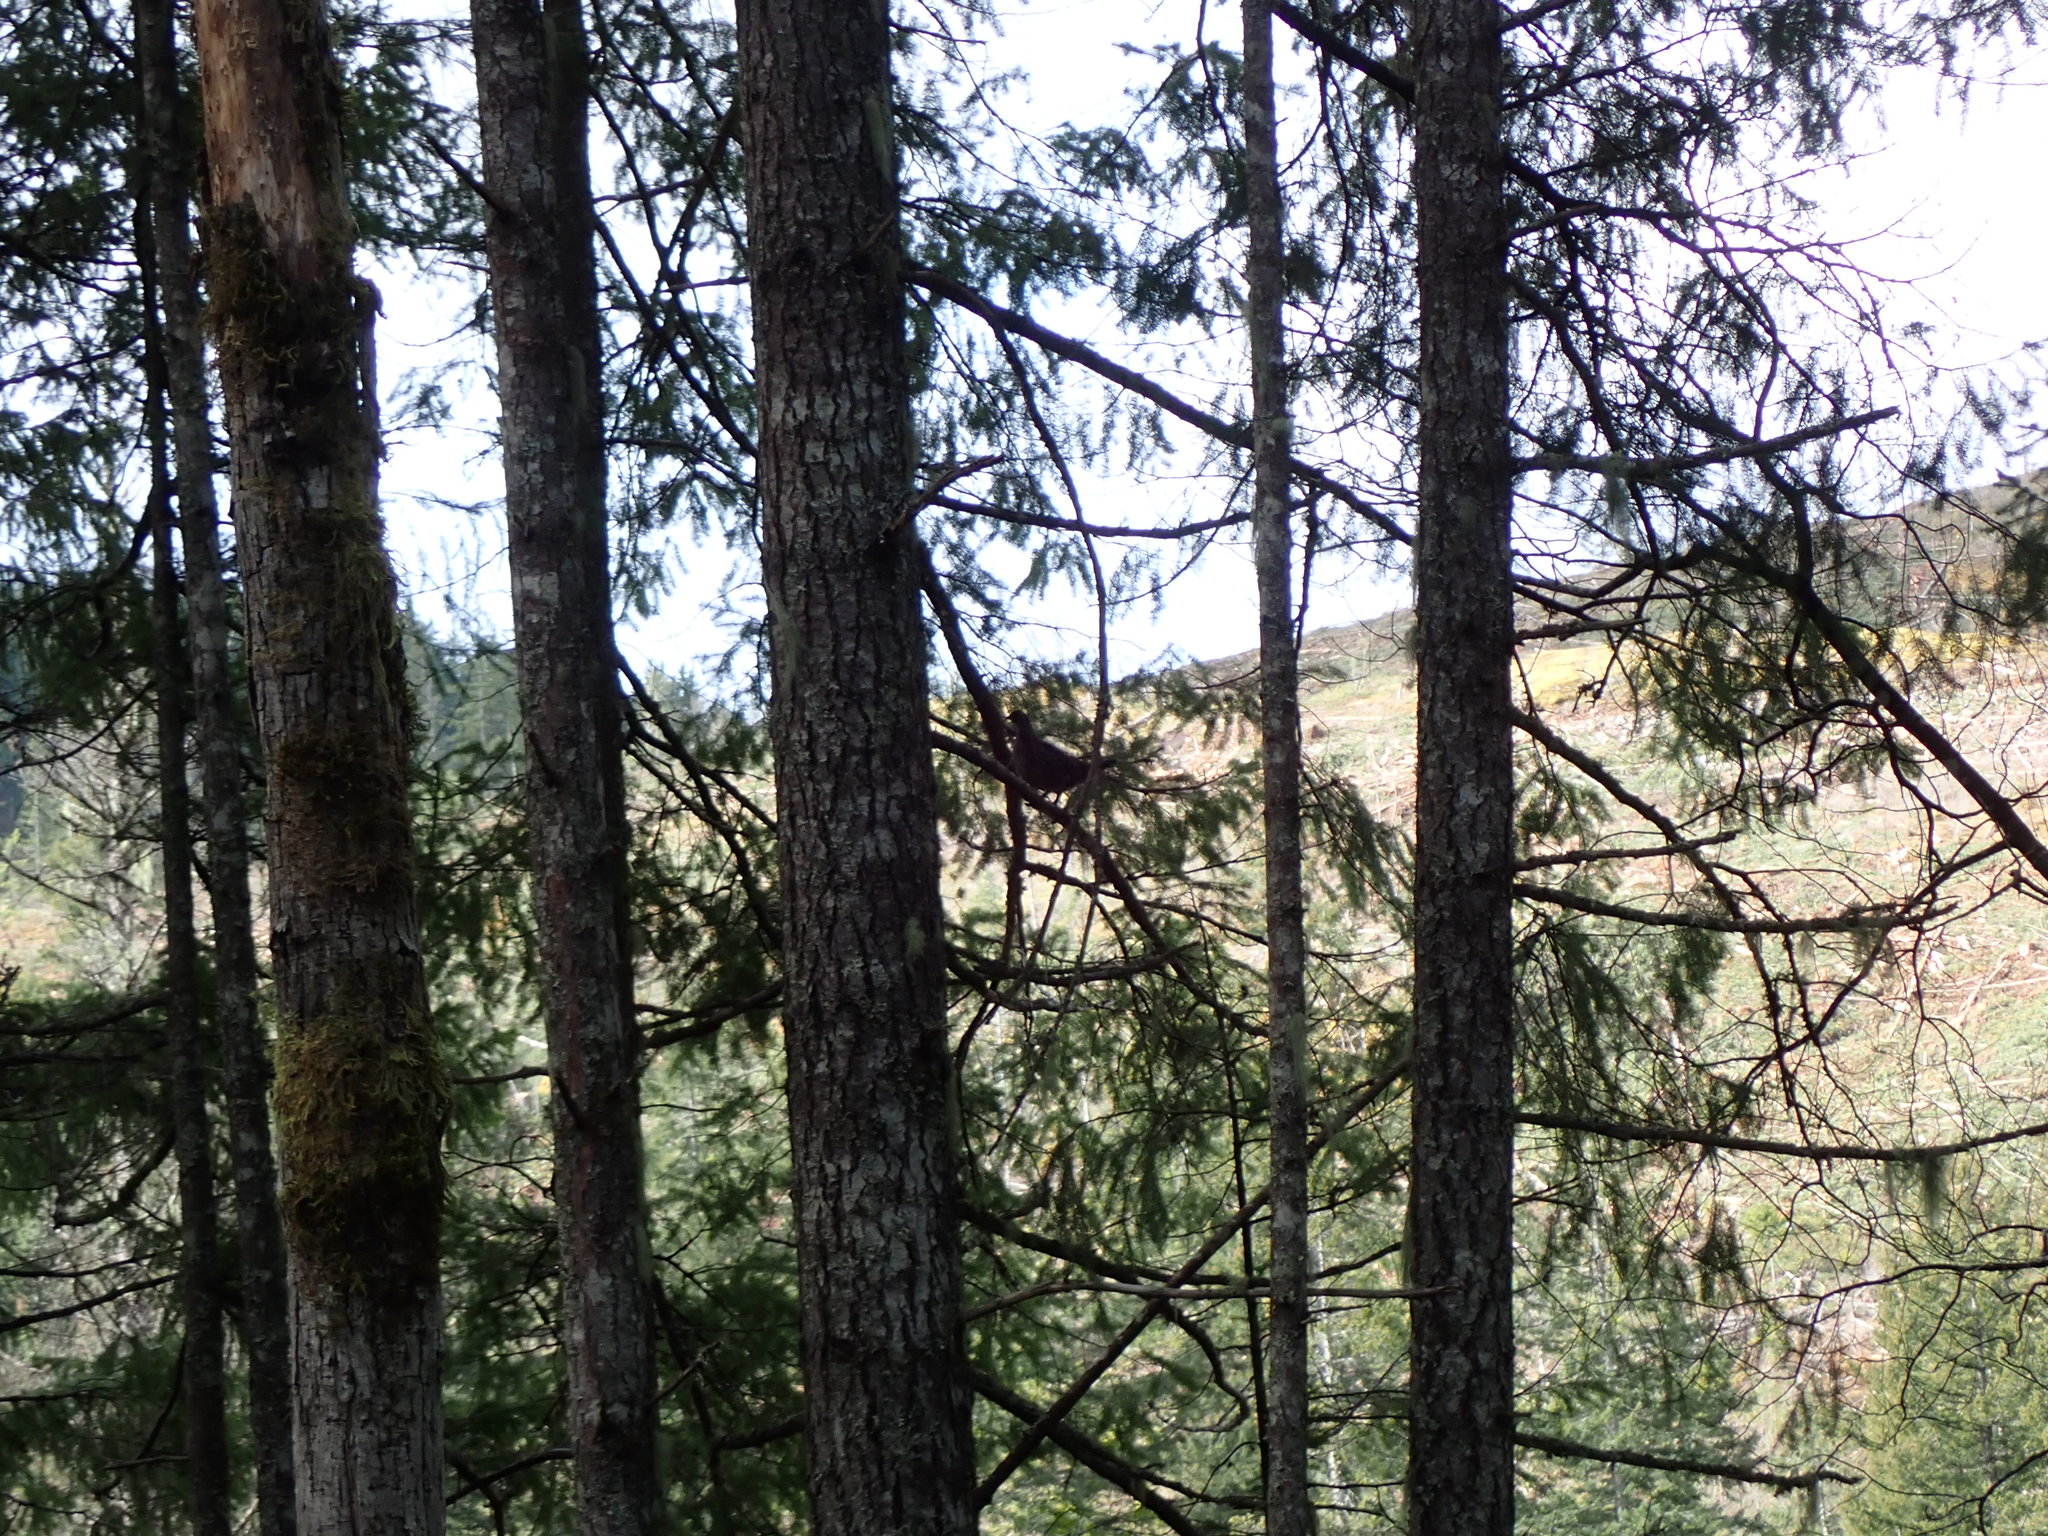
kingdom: Animalia
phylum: Chordata
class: Aves
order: Galliformes
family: Phasianidae
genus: Dendragapus
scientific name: Dendragapus fuliginosus
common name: Sooty grouse
